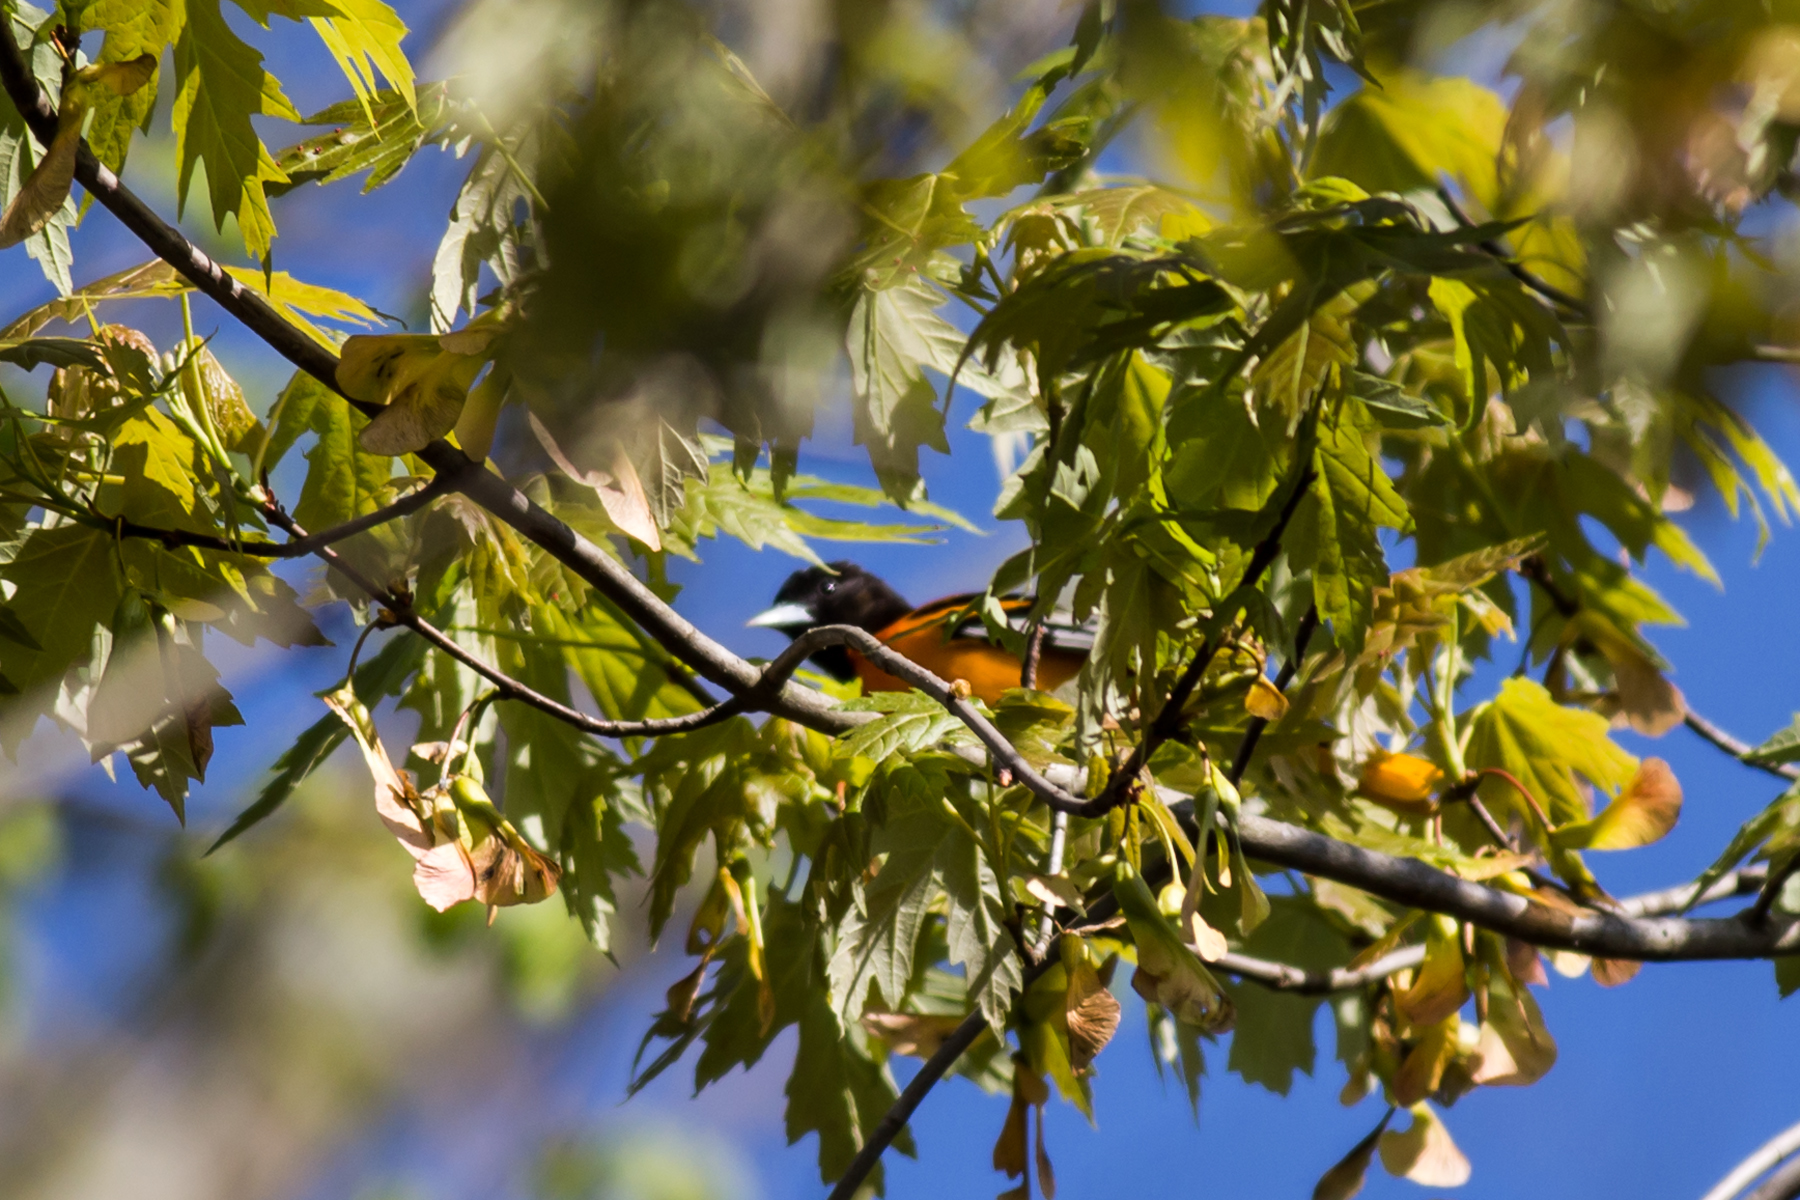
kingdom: Animalia
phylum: Chordata
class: Aves
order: Passeriformes
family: Icteridae
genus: Icterus
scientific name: Icterus galbula
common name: Baltimore oriole
